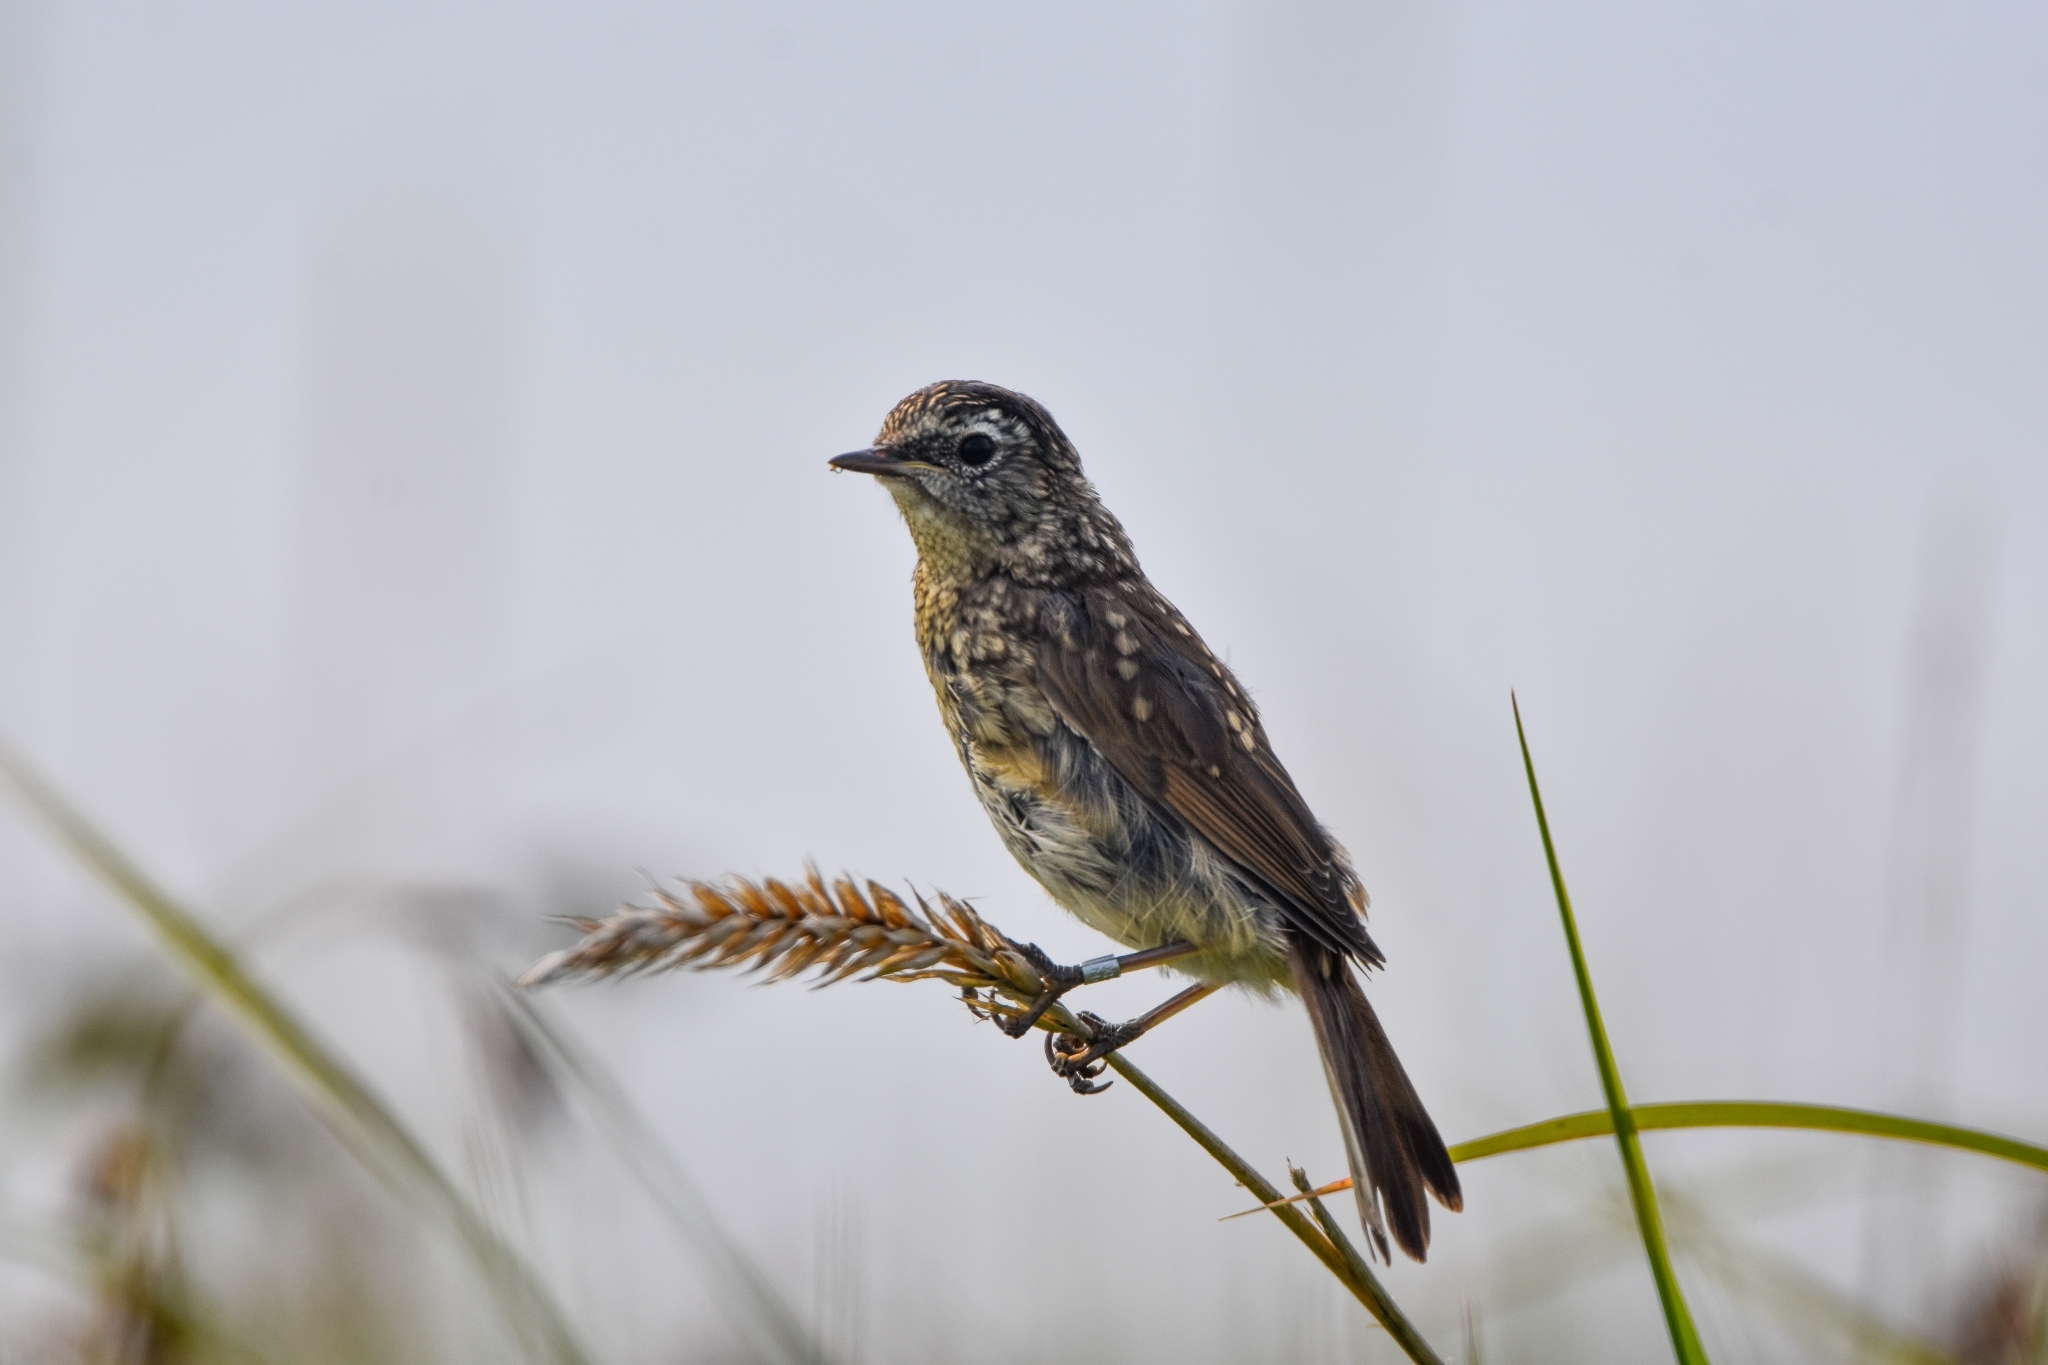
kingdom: Animalia
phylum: Chordata
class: Aves
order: Passeriformes
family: Muscicapidae
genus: Luscinia
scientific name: Luscinia calliope
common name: Siberian rubythroat
